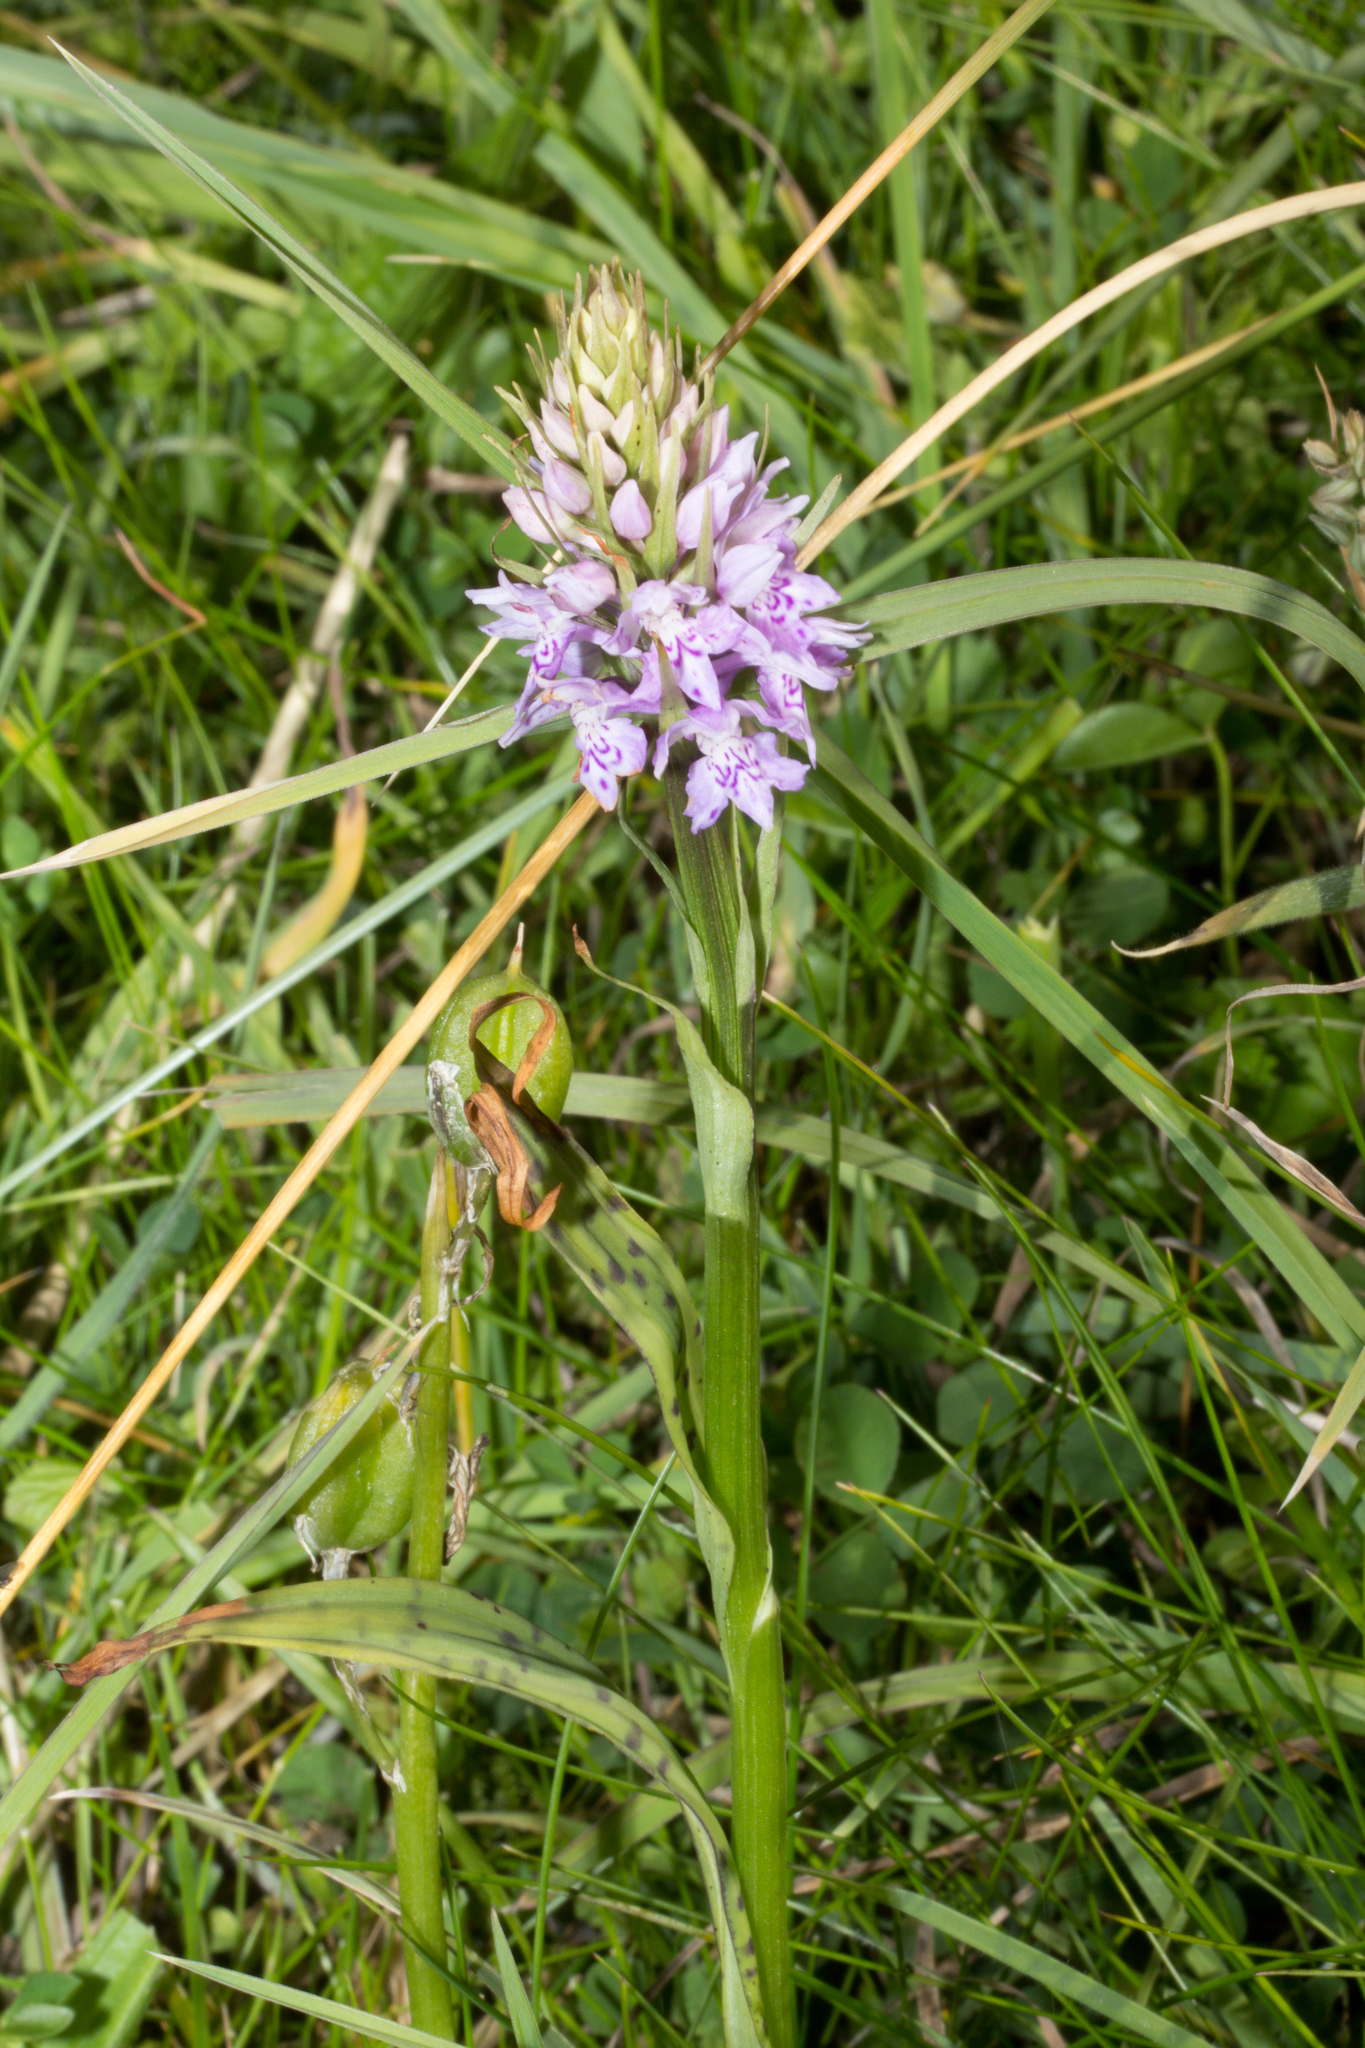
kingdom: Plantae
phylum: Tracheophyta
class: Liliopsida
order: Asparagales
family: Orchidaceae
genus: Dactylorhiza
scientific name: Dactylorhiza maculata
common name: Heath spotted-orchid
